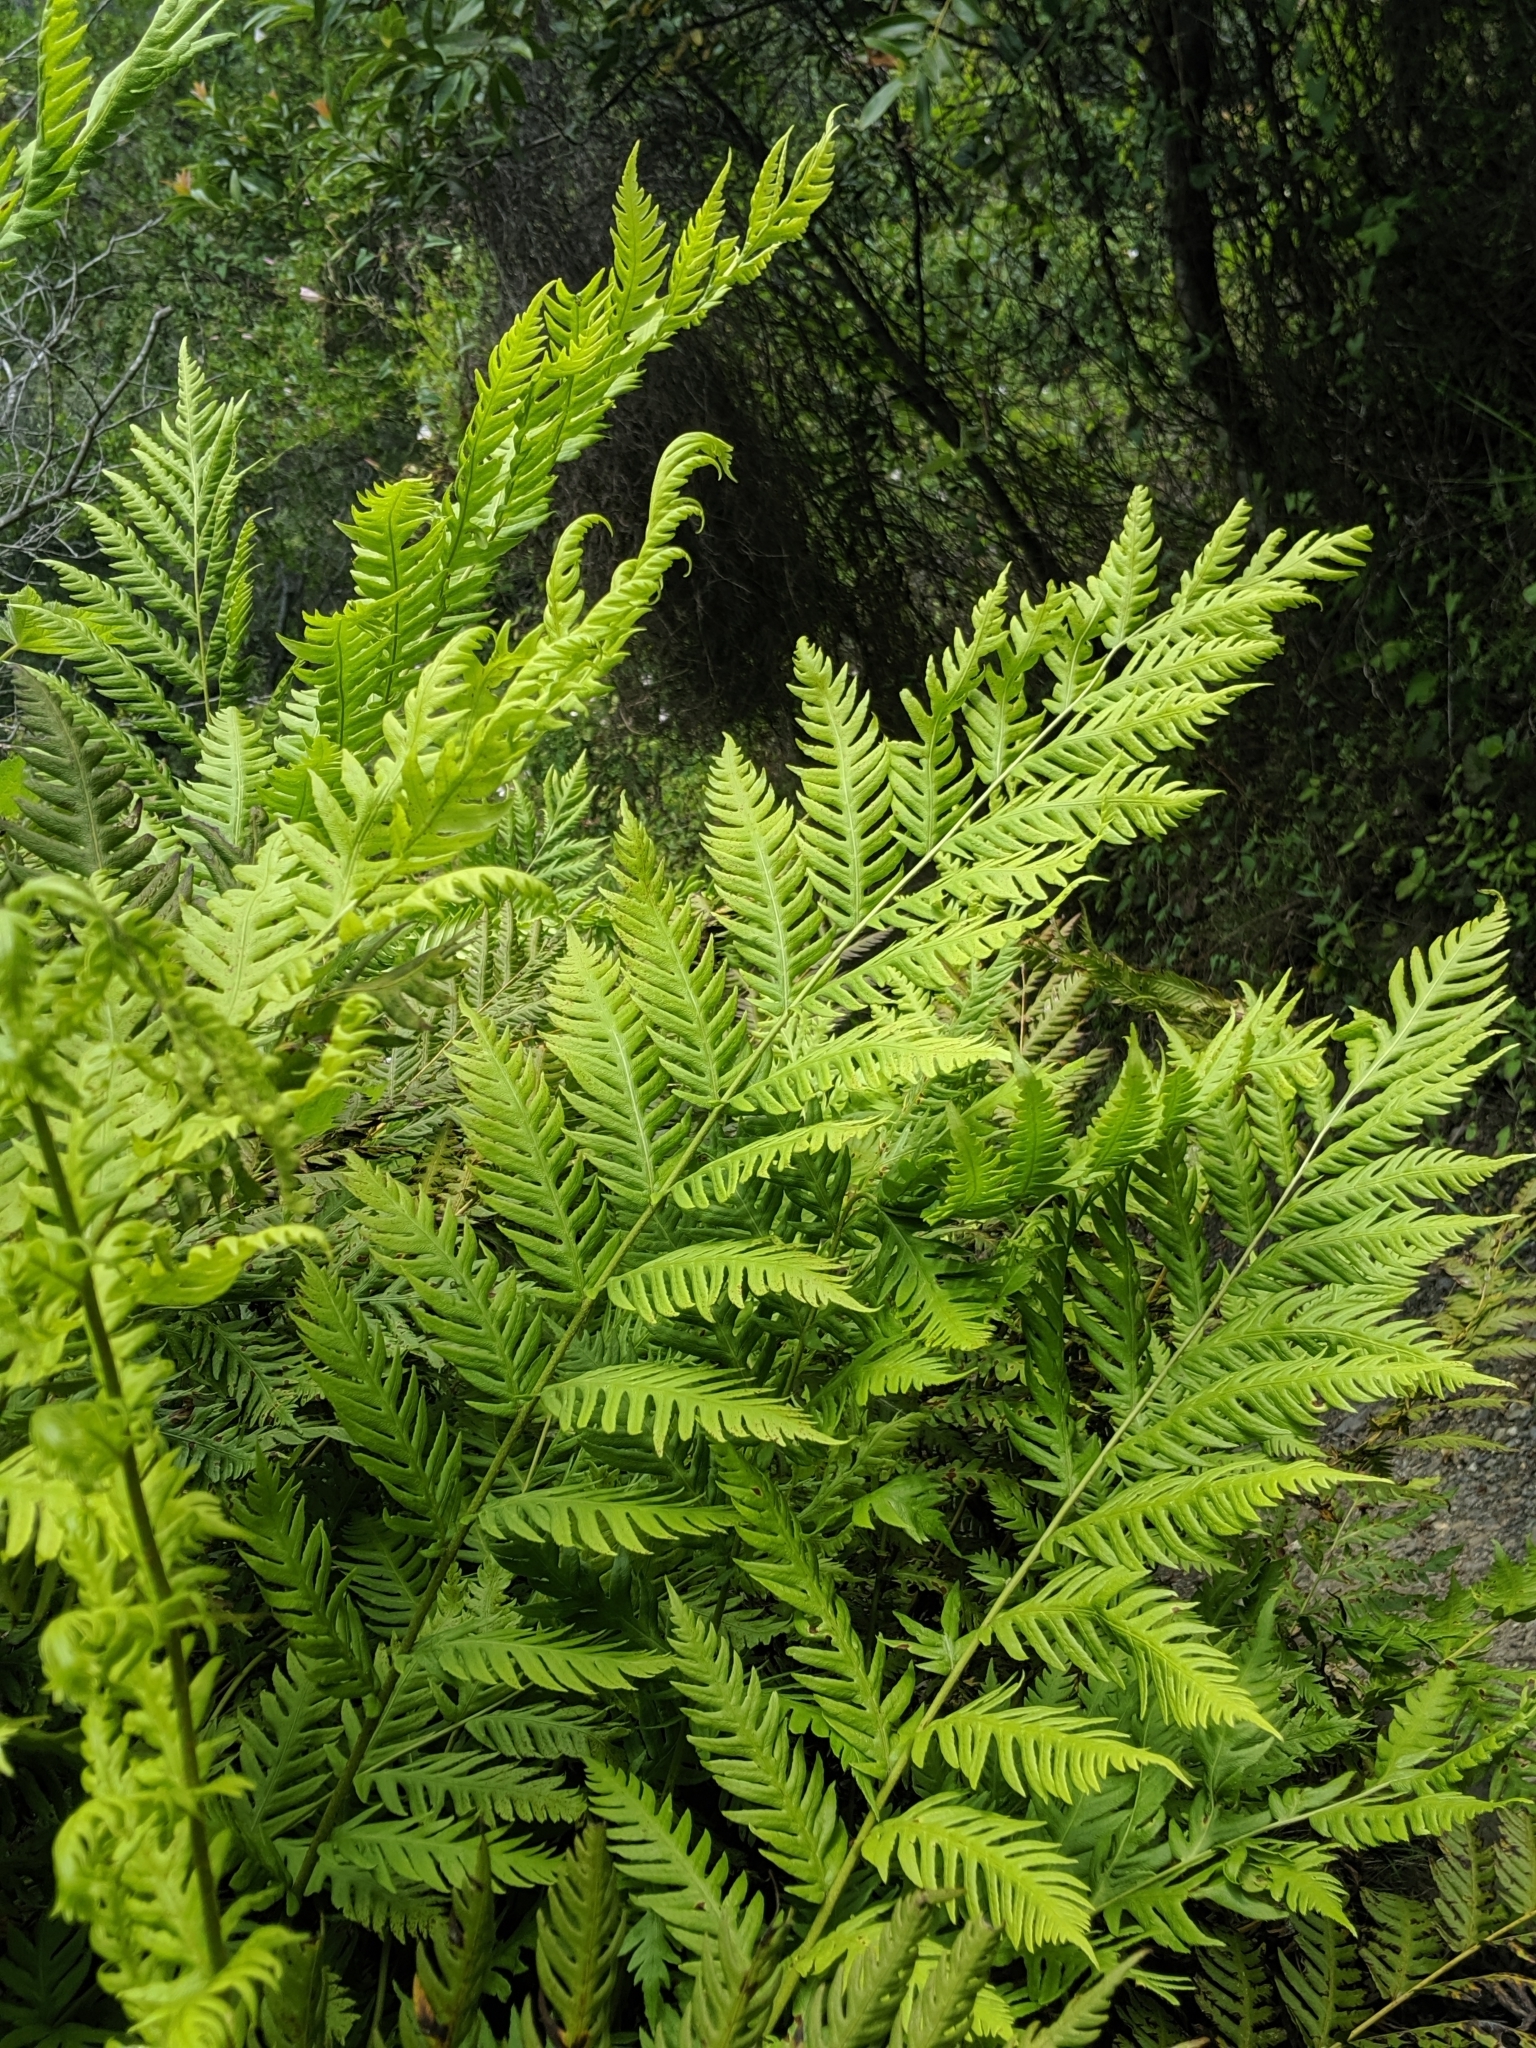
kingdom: Plantae
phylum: Tracheophyta
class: Polypodiopsida
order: Polypodiales
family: Blechnaceae
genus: Woodwardia
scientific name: Woodwardia fimbriata
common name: Giant chain fern
